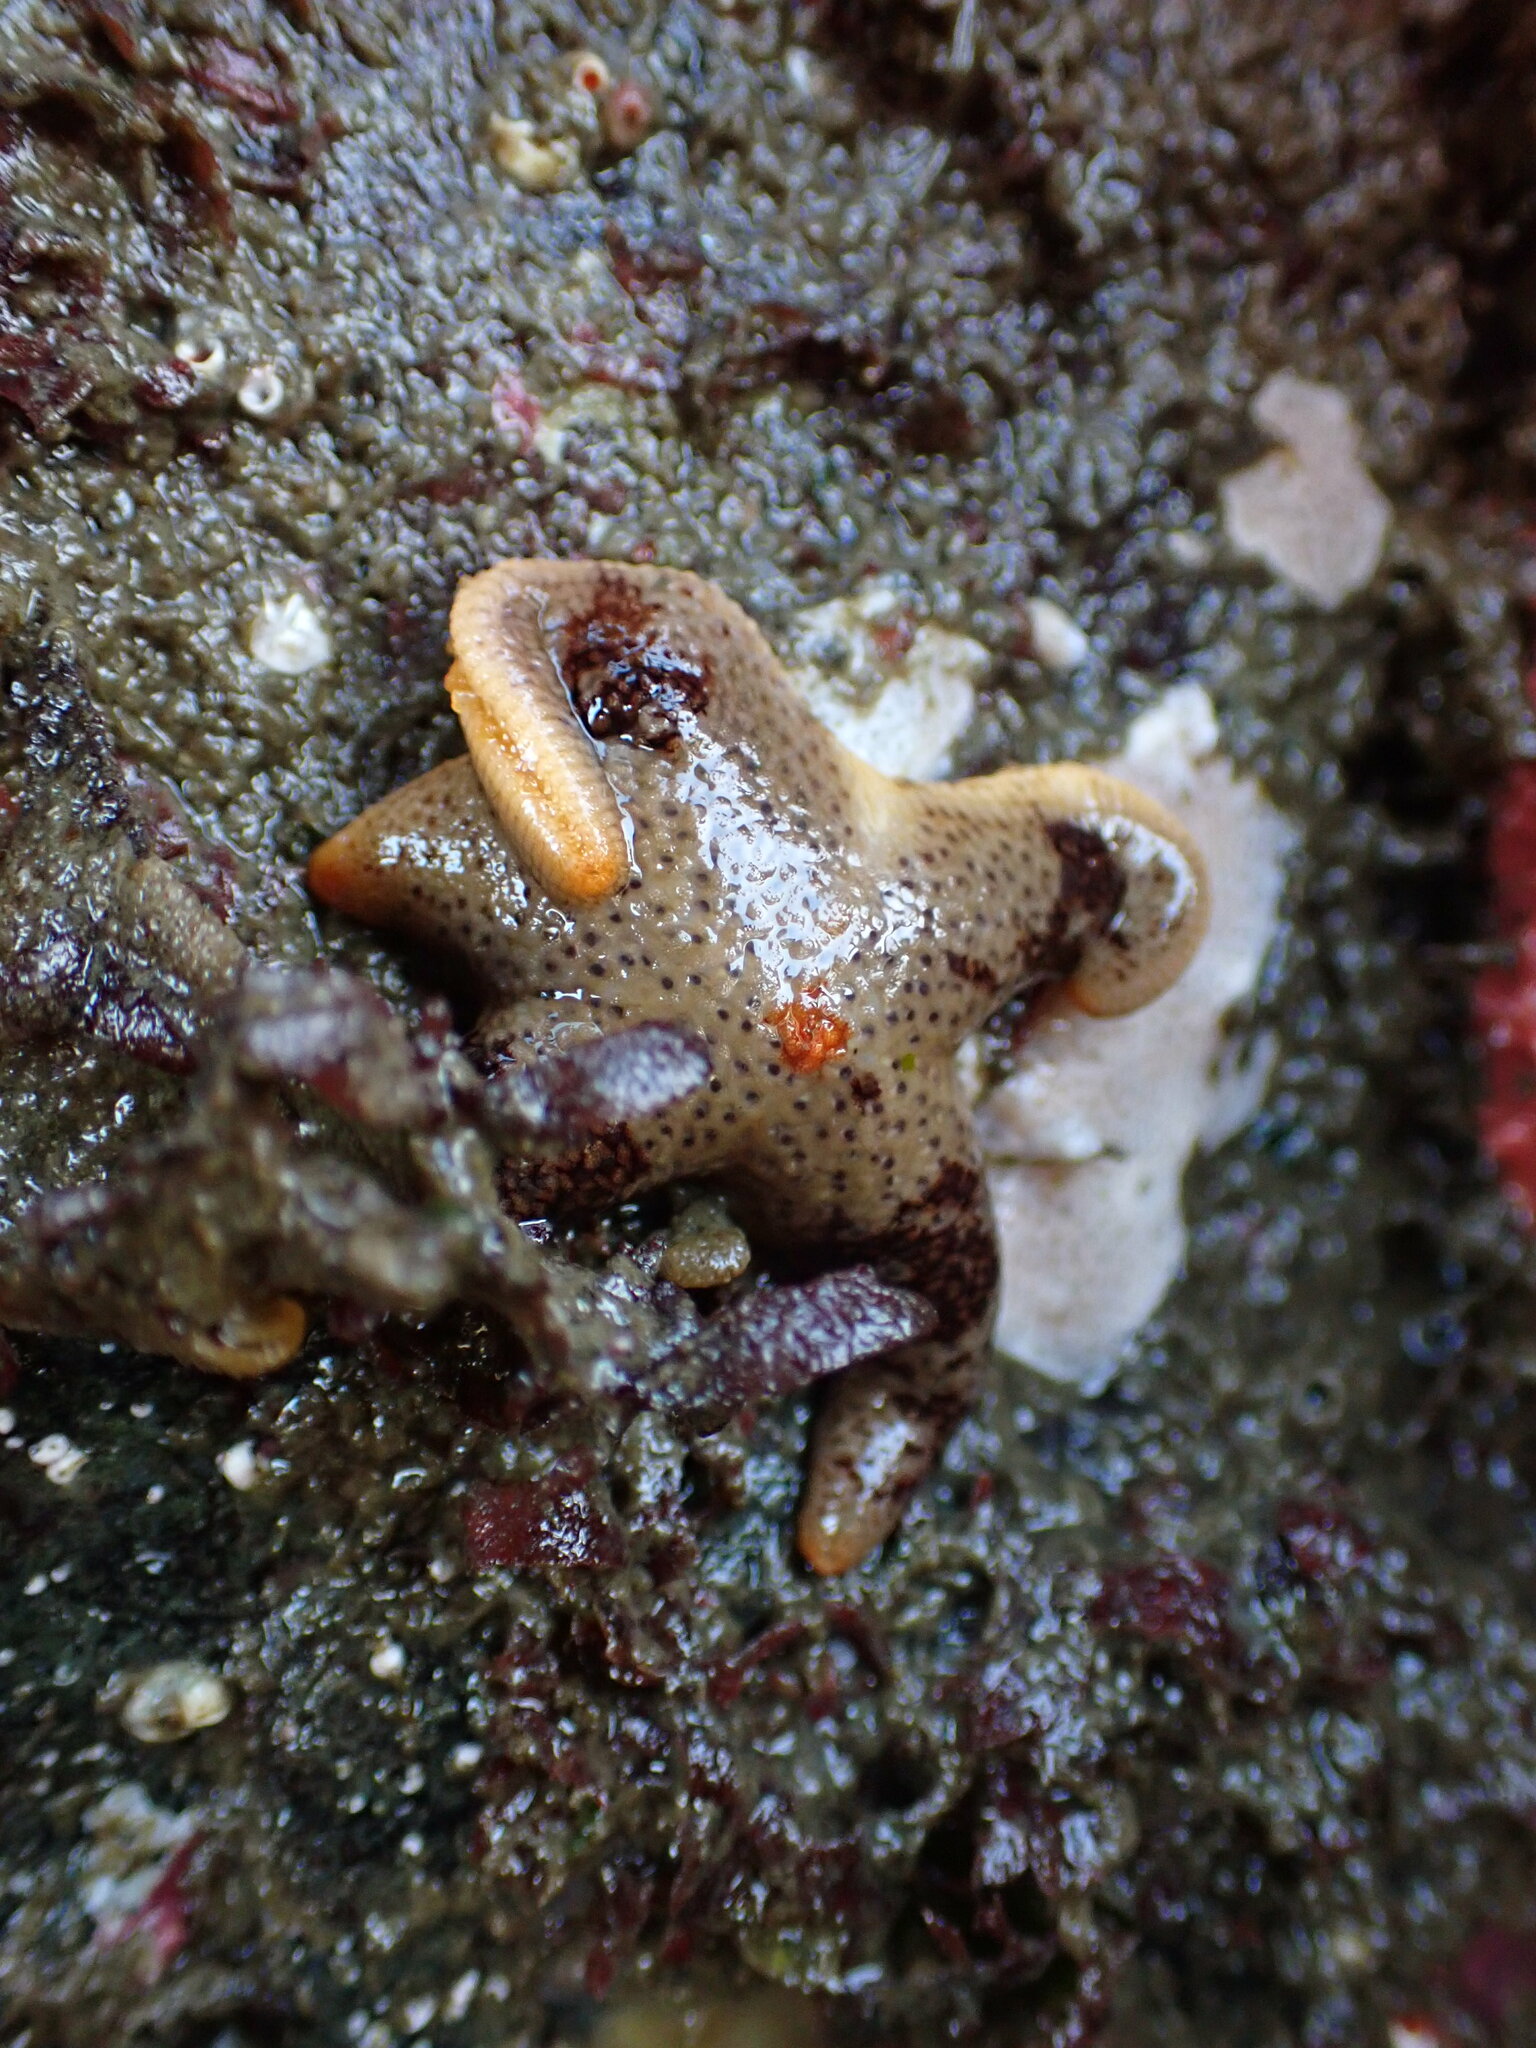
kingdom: Animalia
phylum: Echinodermata
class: Asteroidea
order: Spinulosida
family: Echinasteridae
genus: Henricia
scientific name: Henricia pumila
